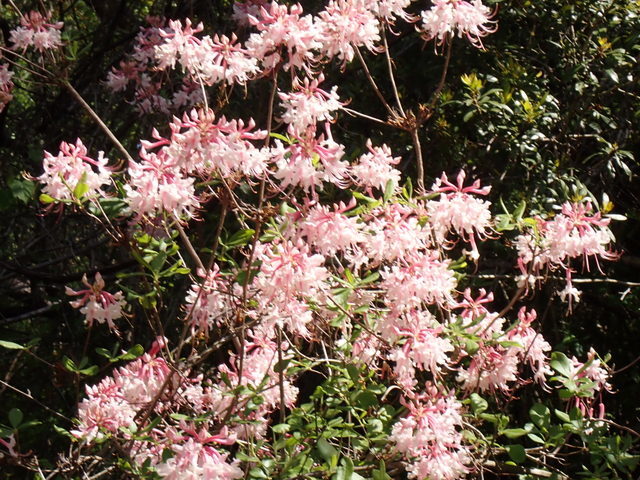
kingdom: Plantae
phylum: Tracheophyta
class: Magnoliopsida
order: Ericales
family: Ericaceae
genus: Rhododendron
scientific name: Rhododendron canescens
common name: Mountain azalea
